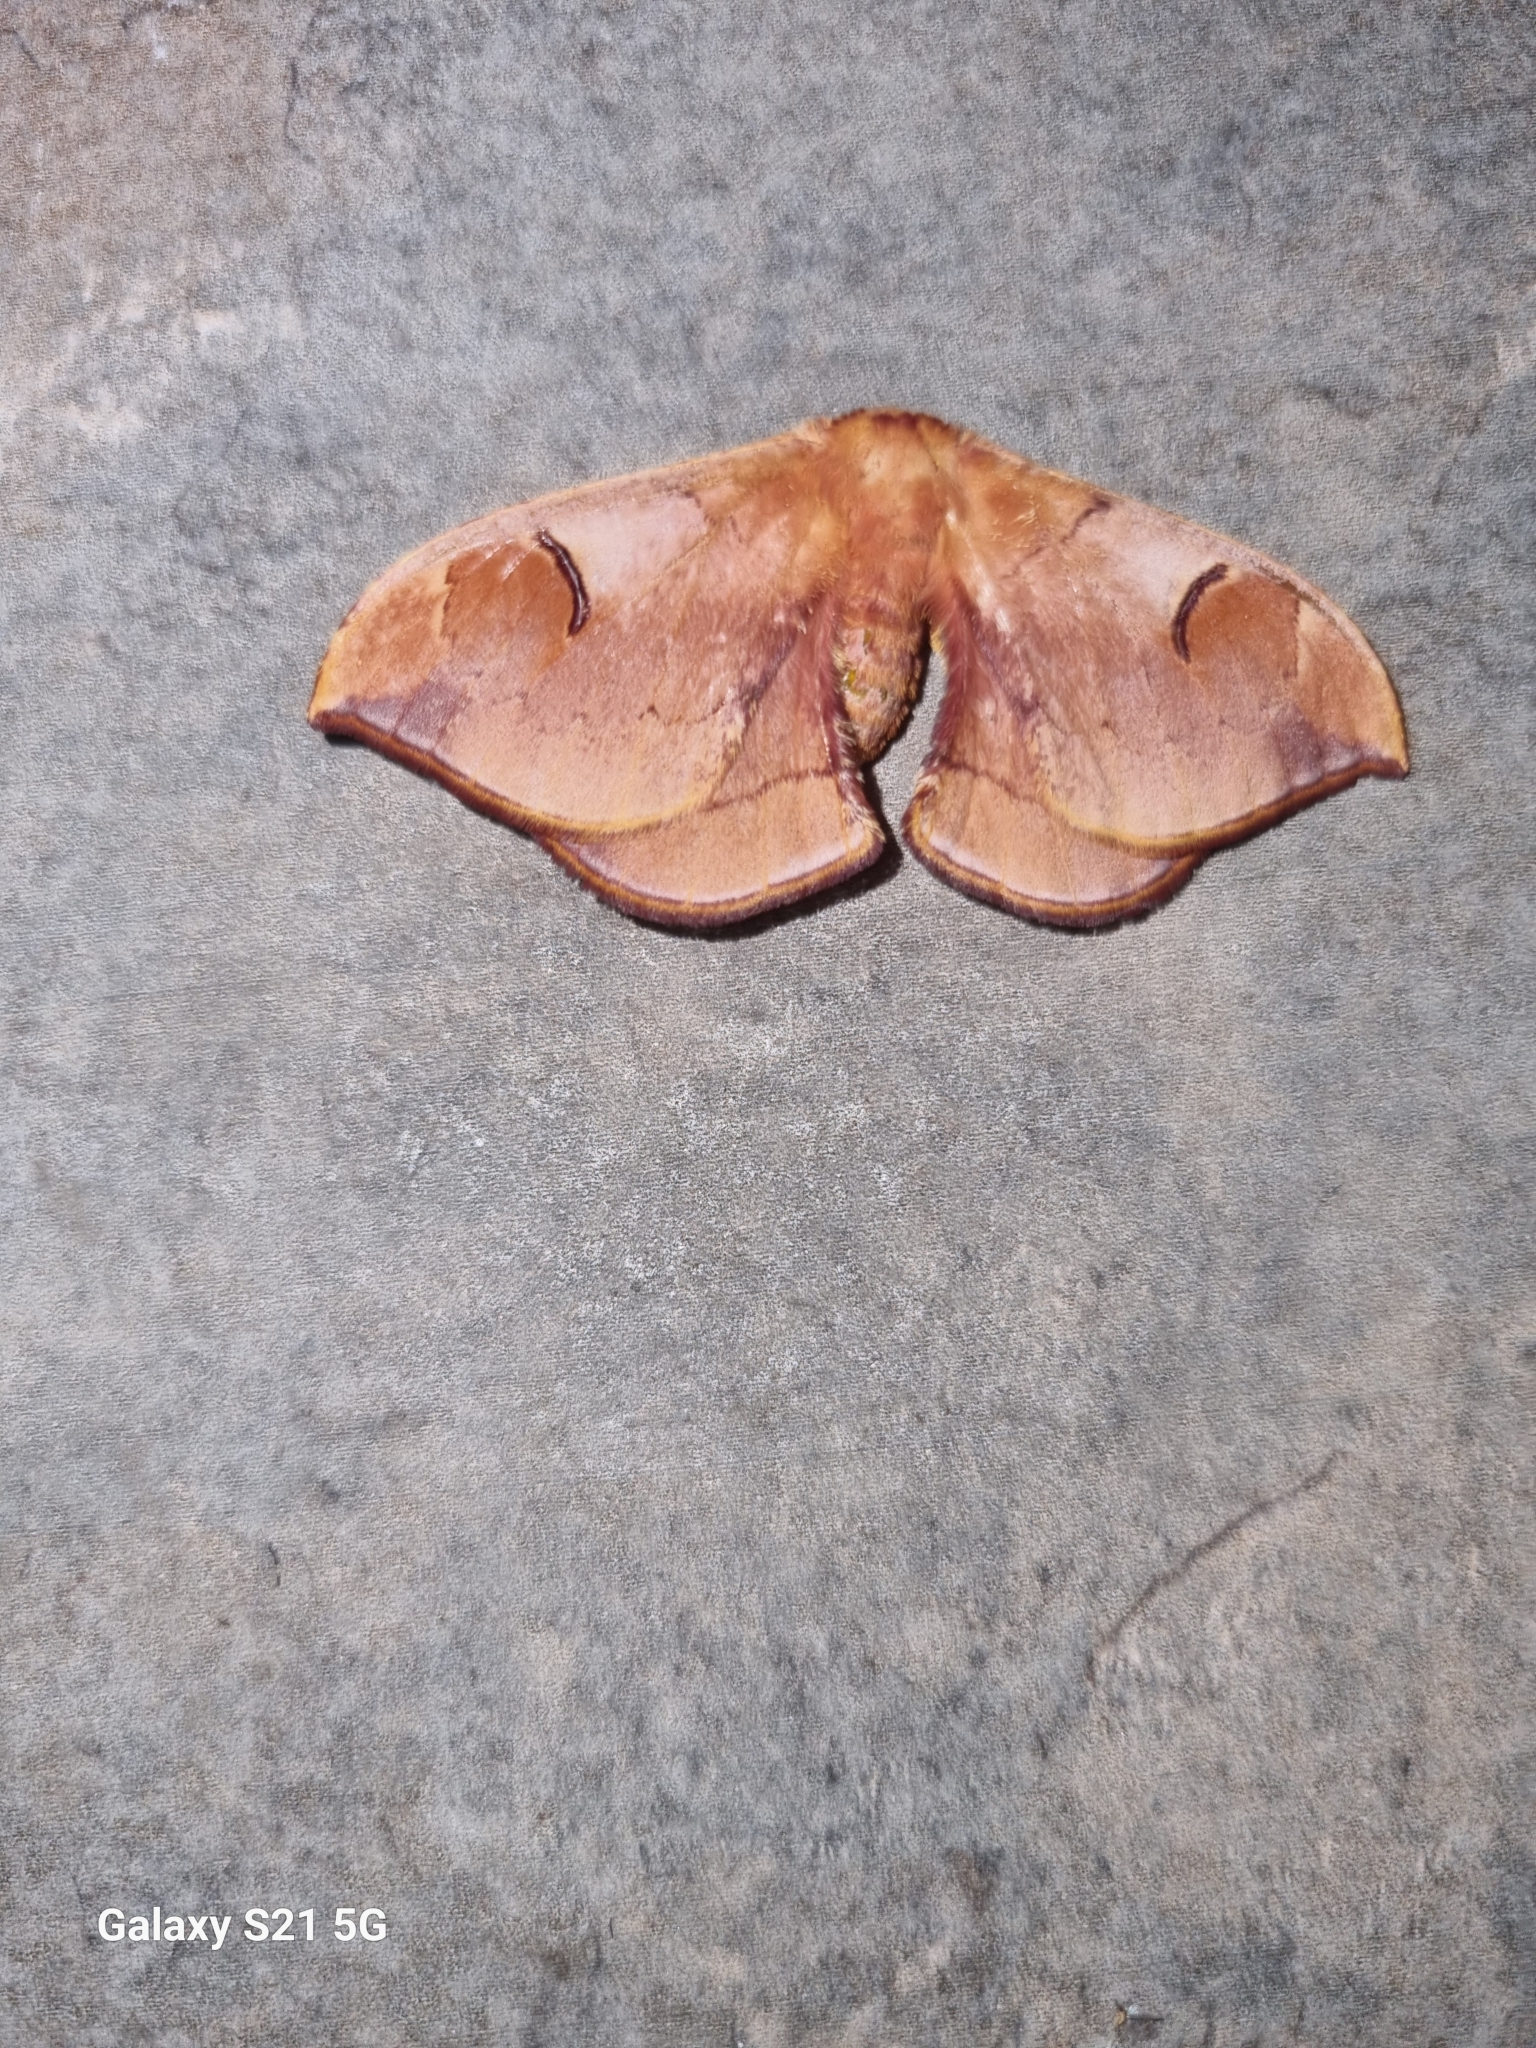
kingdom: Animalia
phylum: Arthropoda
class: Insecta
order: Lepidoptera
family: Saturniidae
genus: Goodia
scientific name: Goodia
